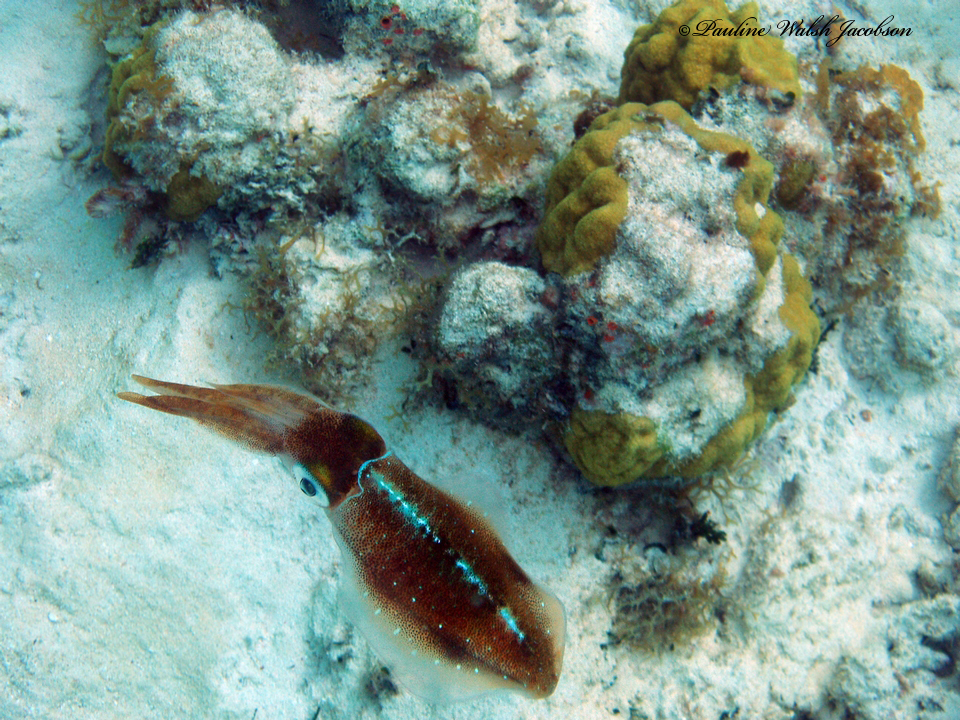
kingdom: Animalia
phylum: Mollusca
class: Cephalopoda
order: Myopsida
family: Loliginidae
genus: Sepioteuthis
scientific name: Sepioteuthis sepioidea
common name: Caribbean reef squid
